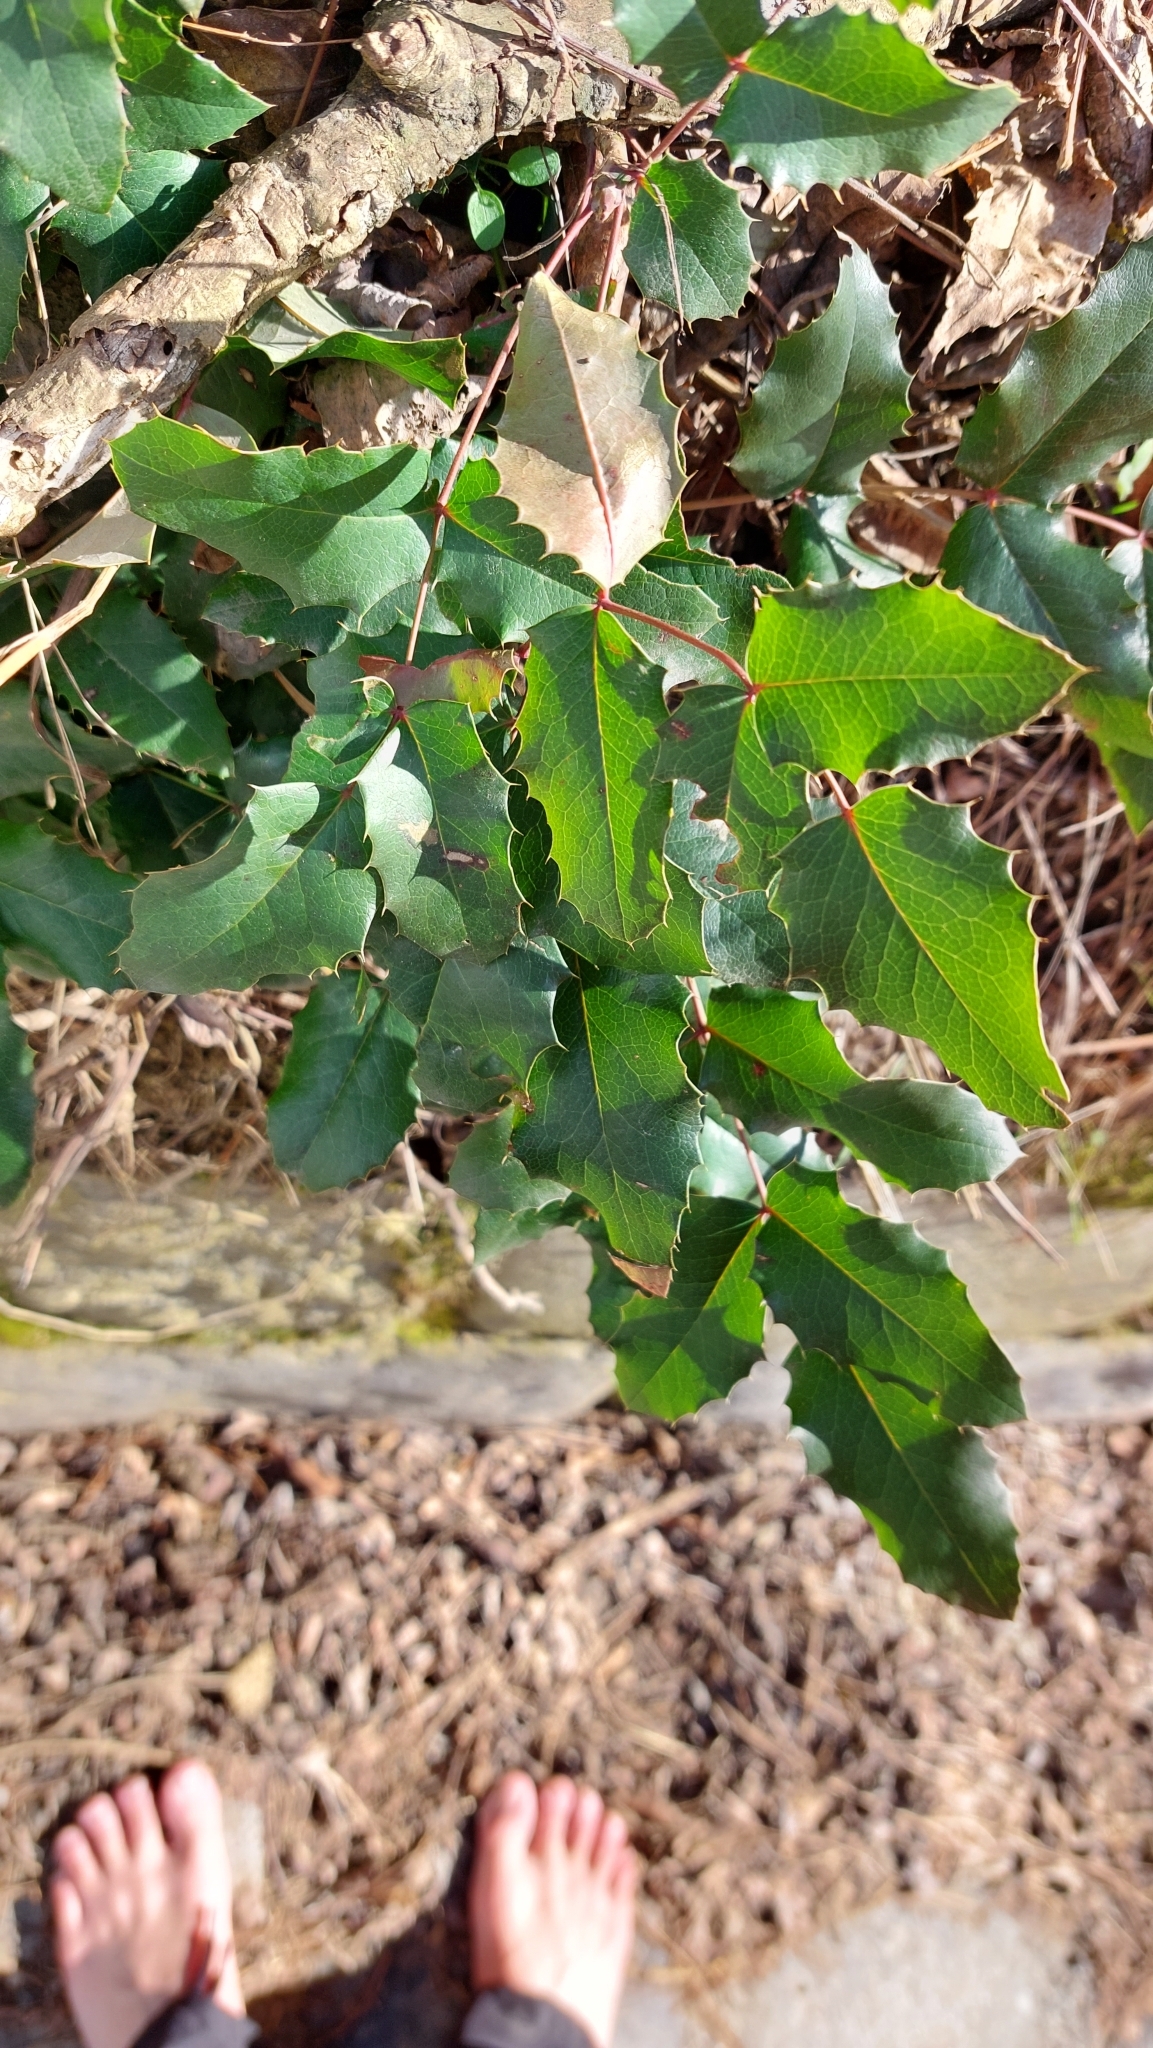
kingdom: Plantae
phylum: Tracheophyta
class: Magnoliopsida
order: Ranunculales
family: Berberidaceae
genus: Mahonia
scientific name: Mahonia aquifolium
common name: Oregon-grape
